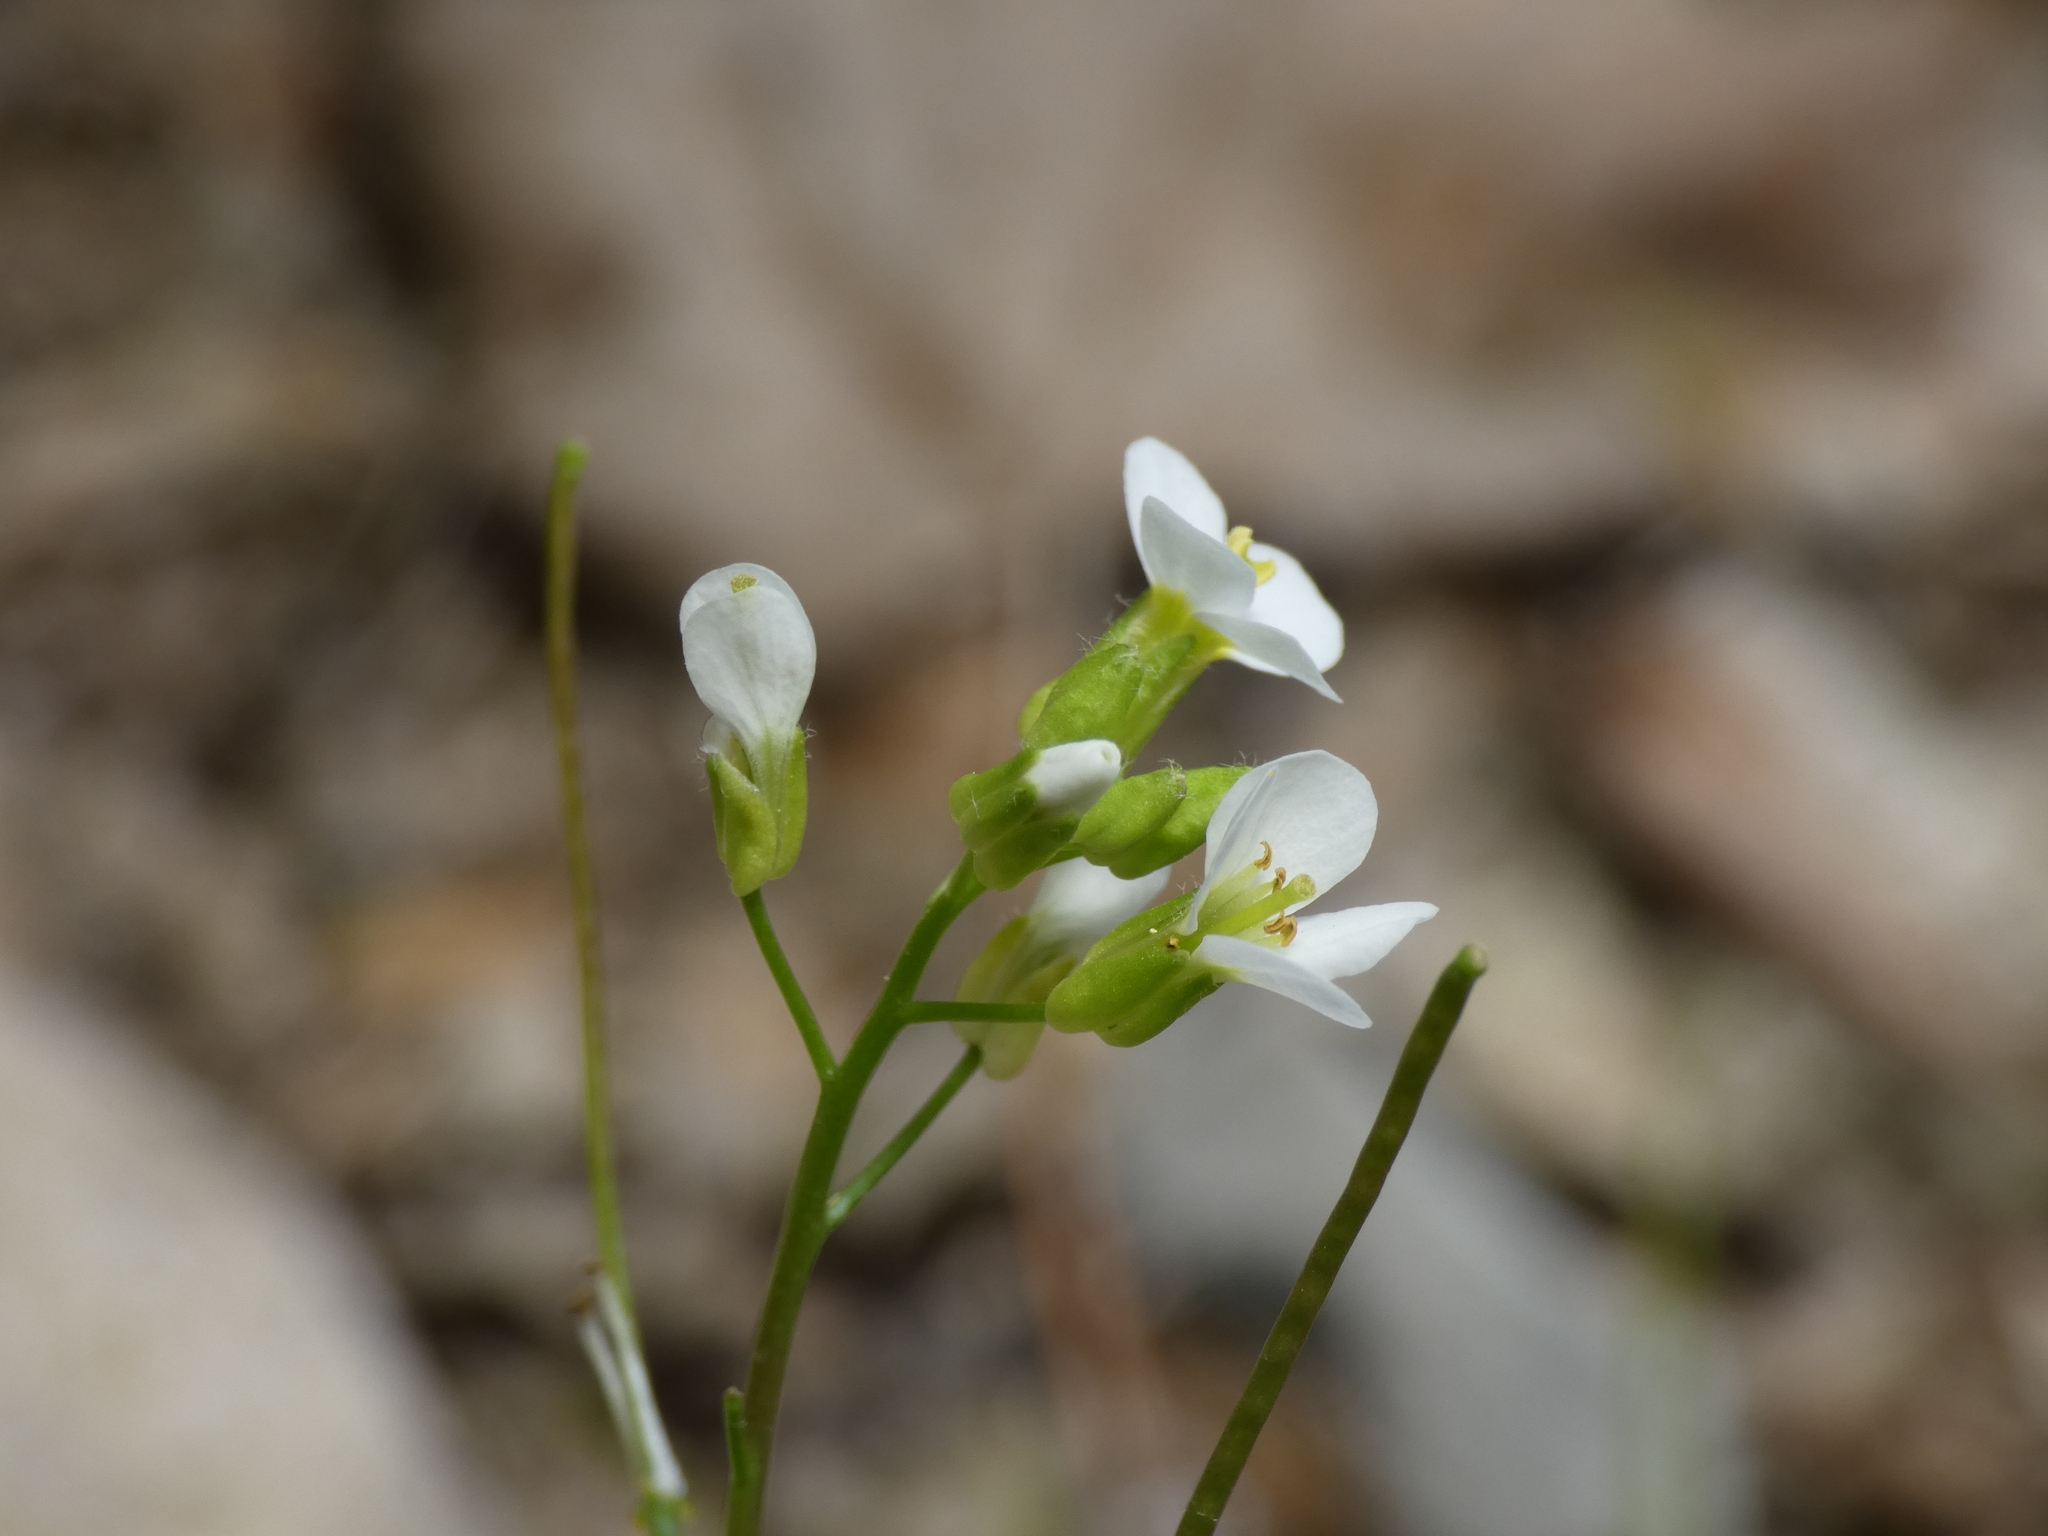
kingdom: Plantae
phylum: Tracheophyta
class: Magnoliopsida
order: Brassicales
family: Brassicaceae
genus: Arabis
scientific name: Arabis alpina
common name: Alpine rock-cress
